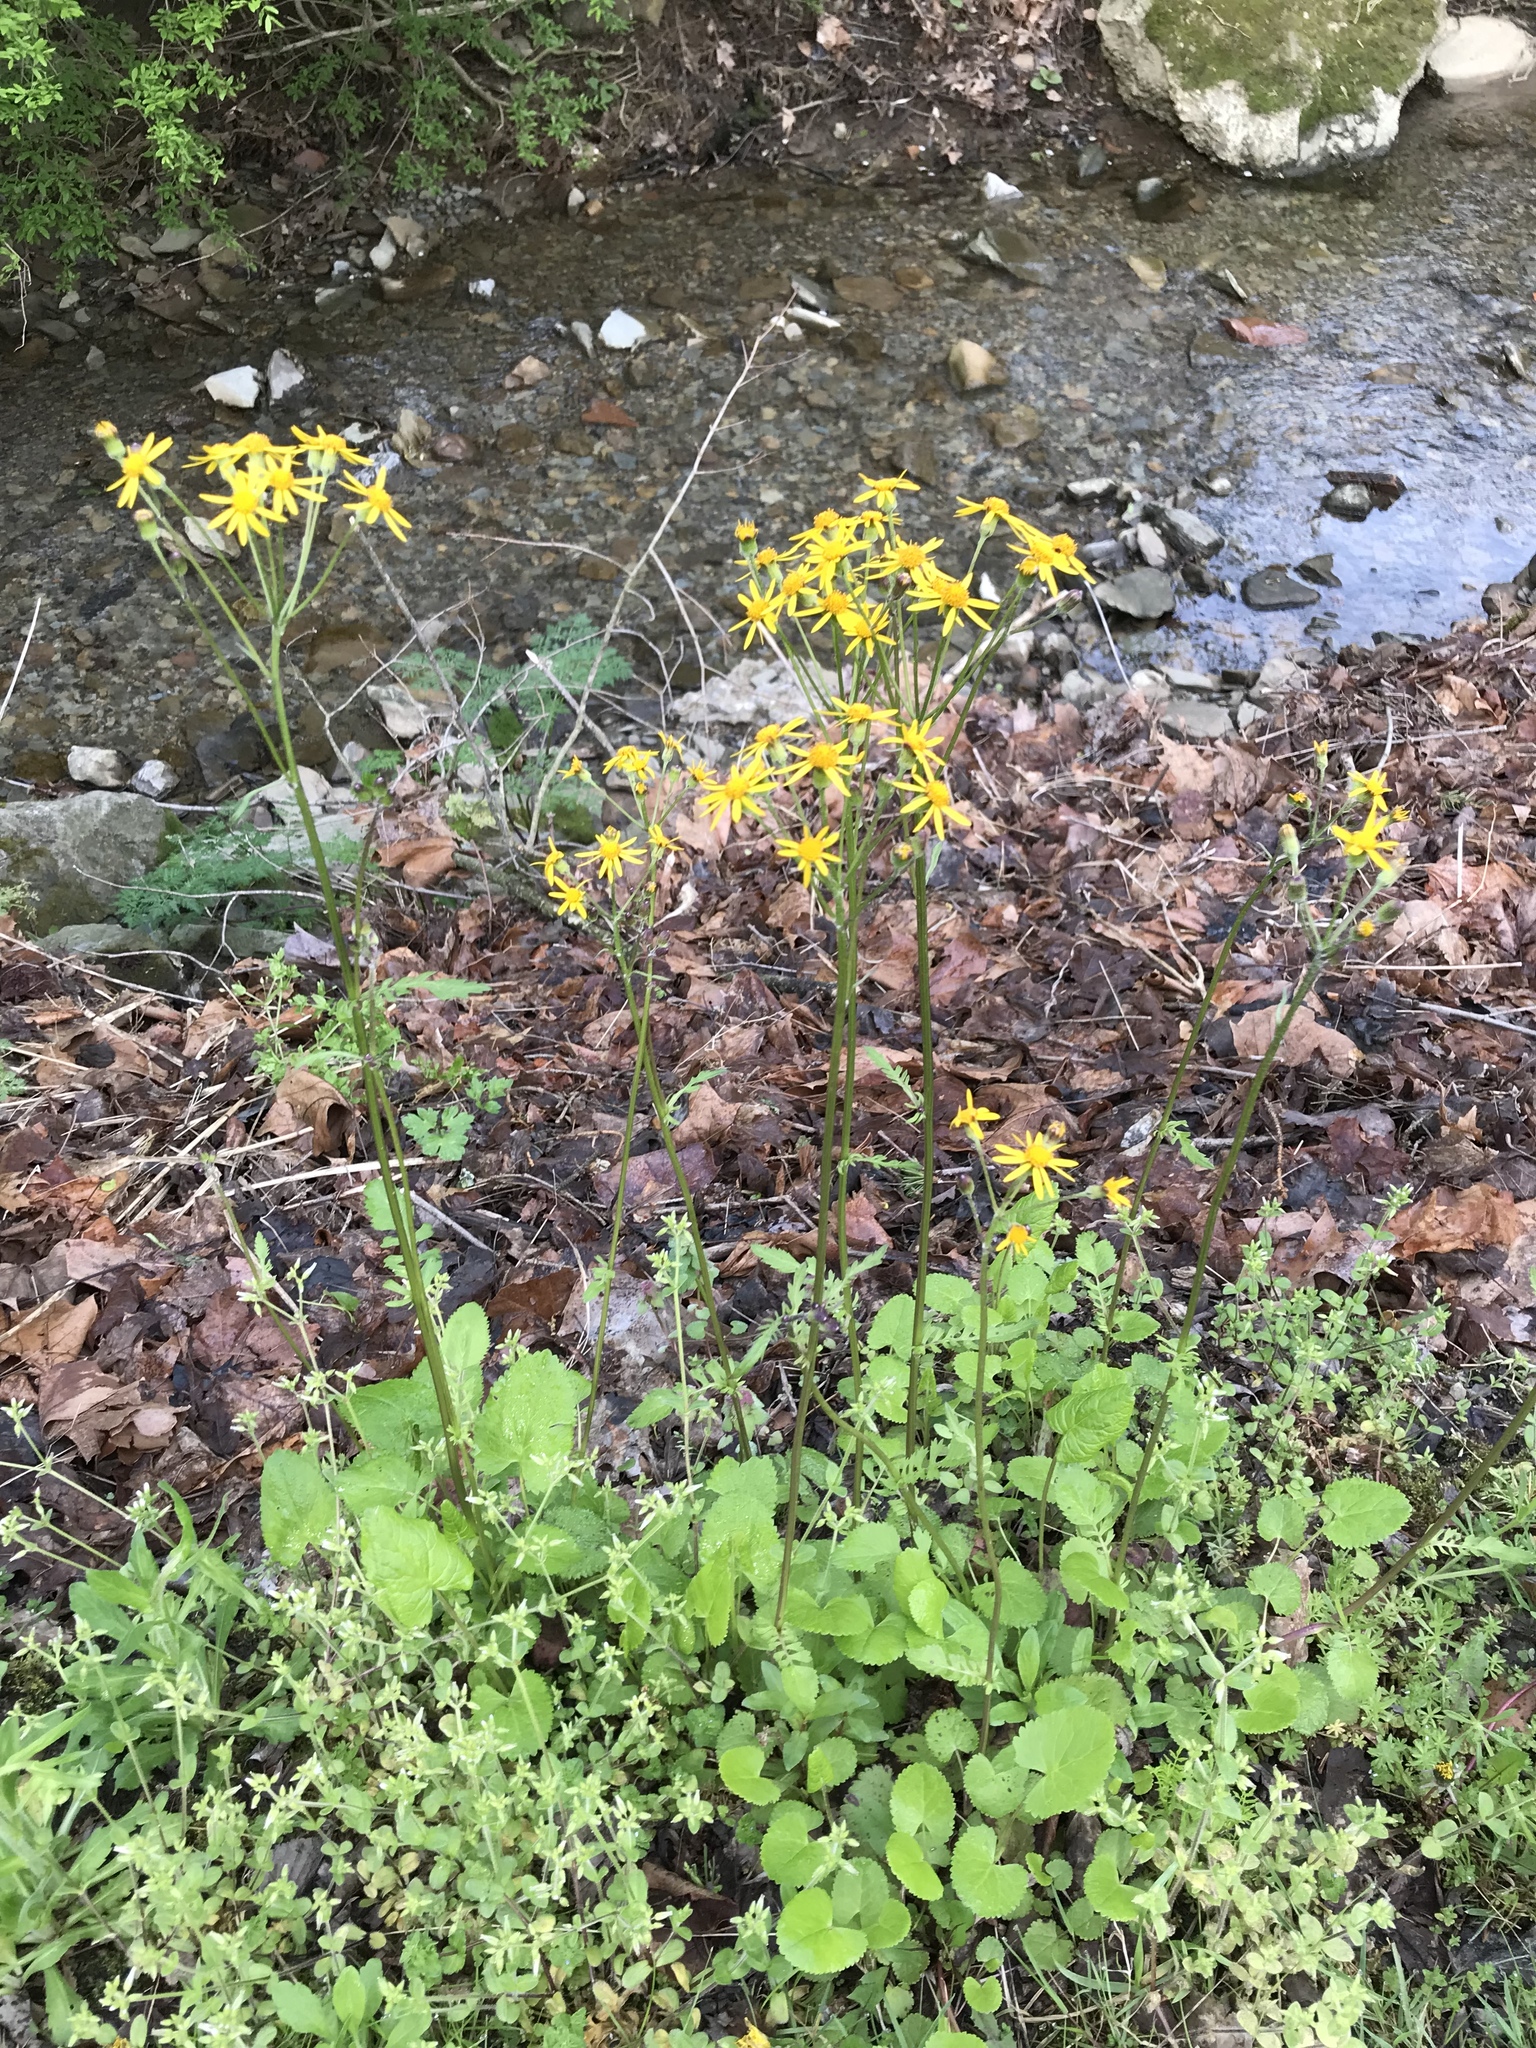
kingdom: Plantae
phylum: Tracheophyta
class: Magnoliopsida
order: Asterales
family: Asteraceae
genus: Packera
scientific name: Packera aurea
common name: Golden groundsel
